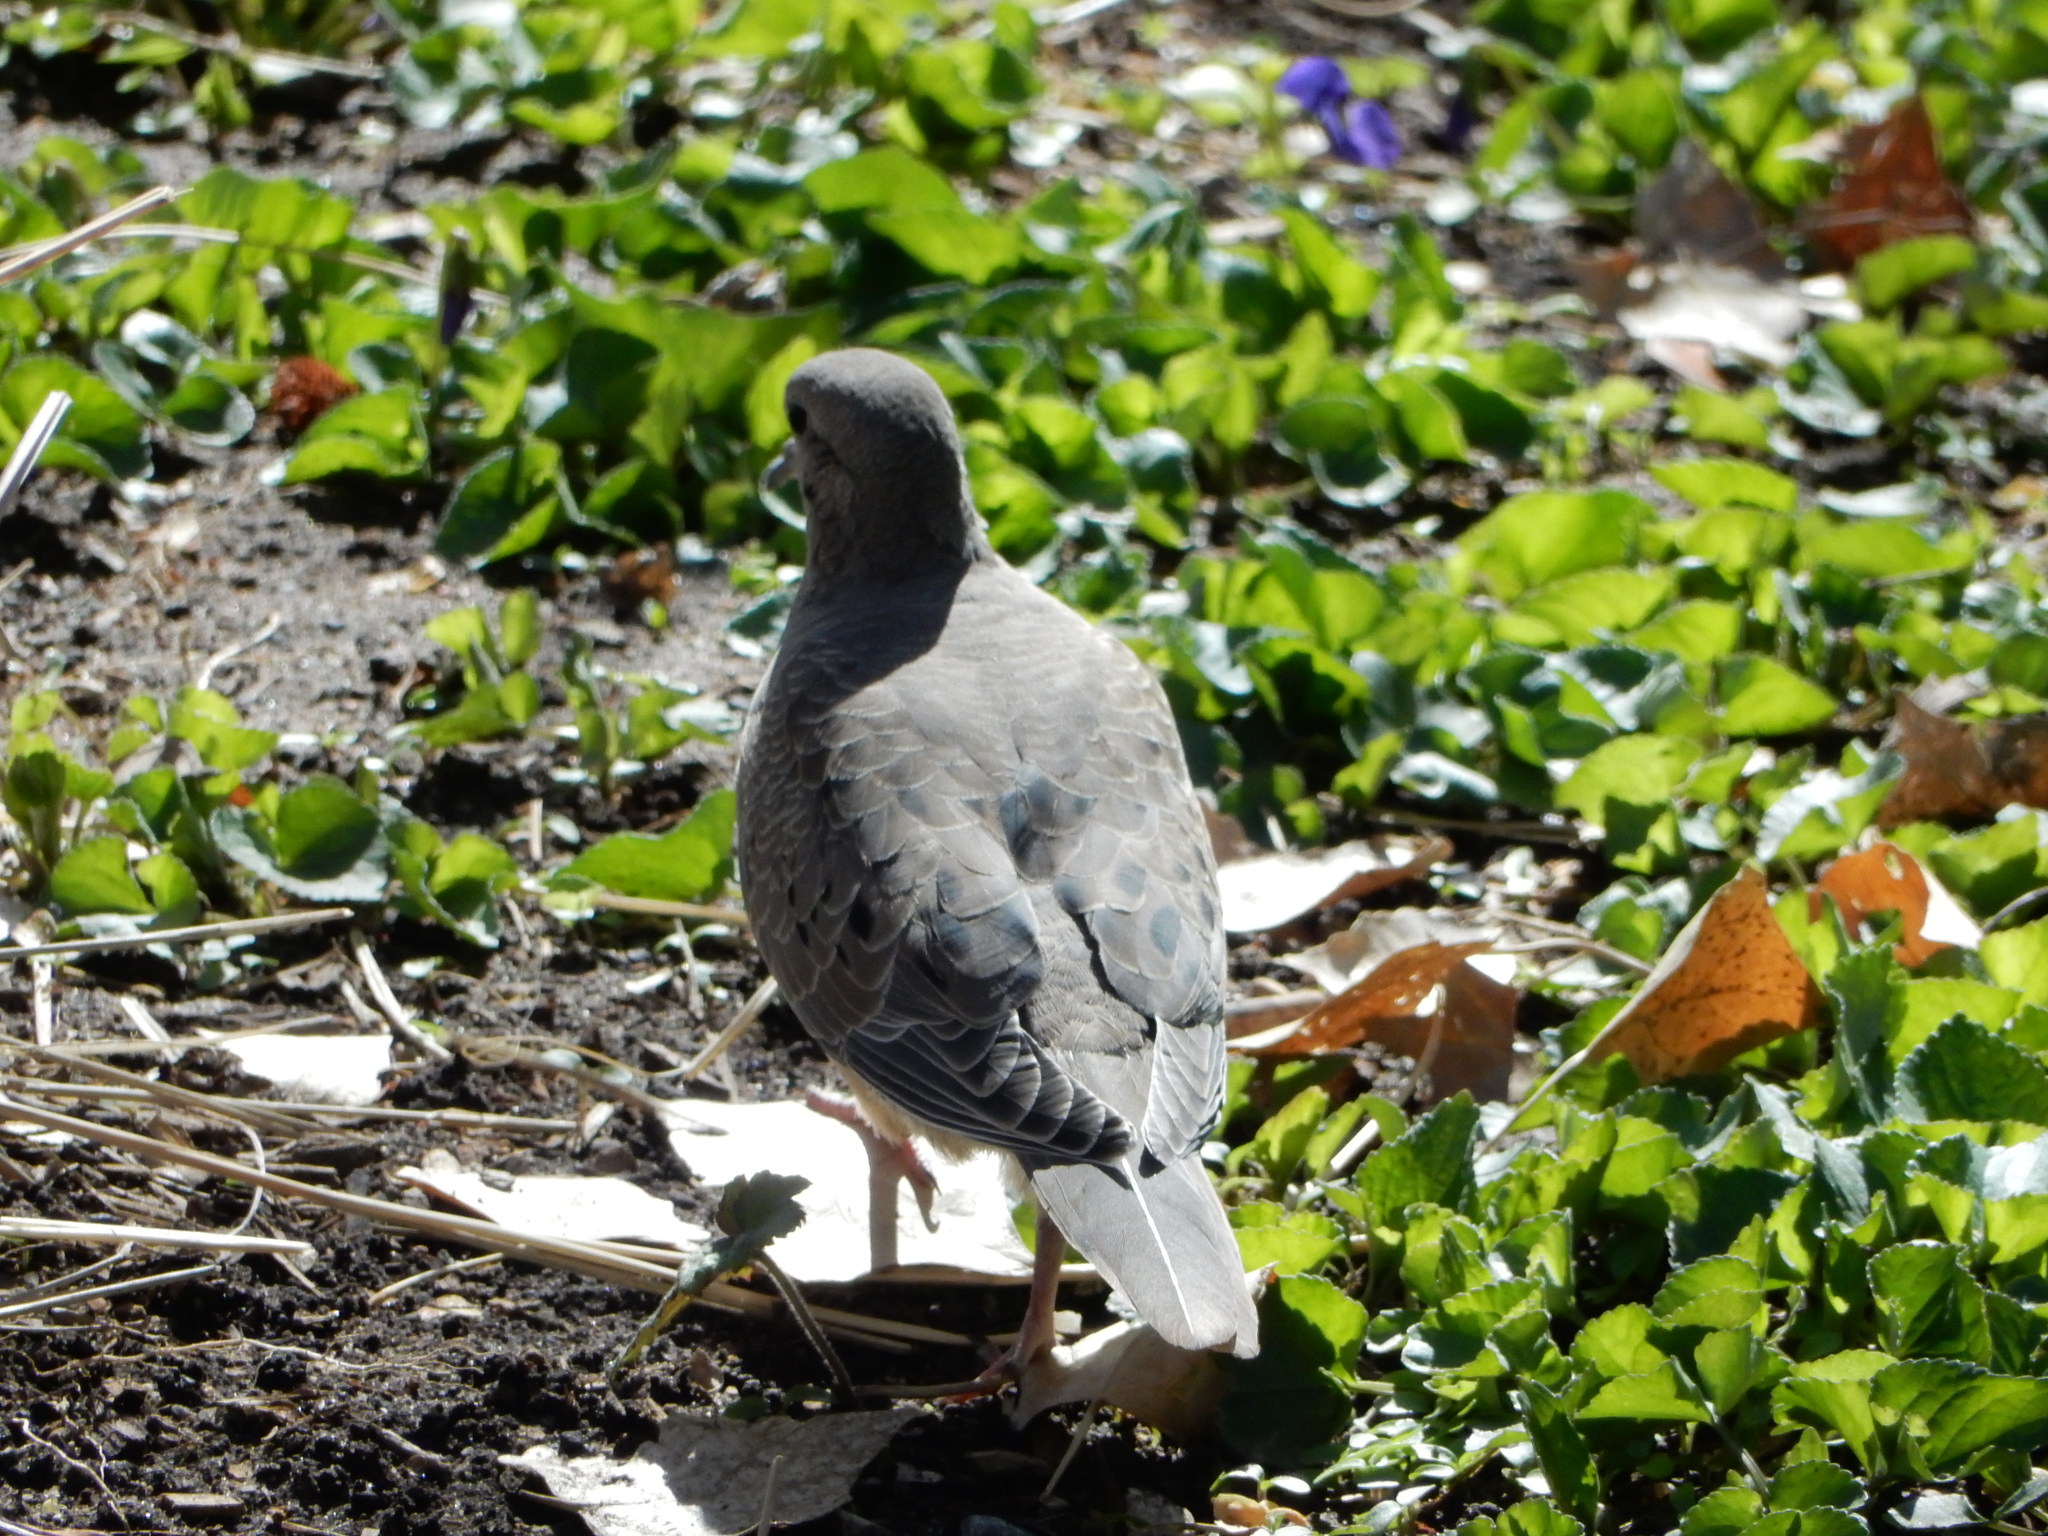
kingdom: Animalia
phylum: Chordata
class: Aves
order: Columbiformes
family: Columbidae
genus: Zenaida
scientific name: Zenaida macroura
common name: Mourning dove
